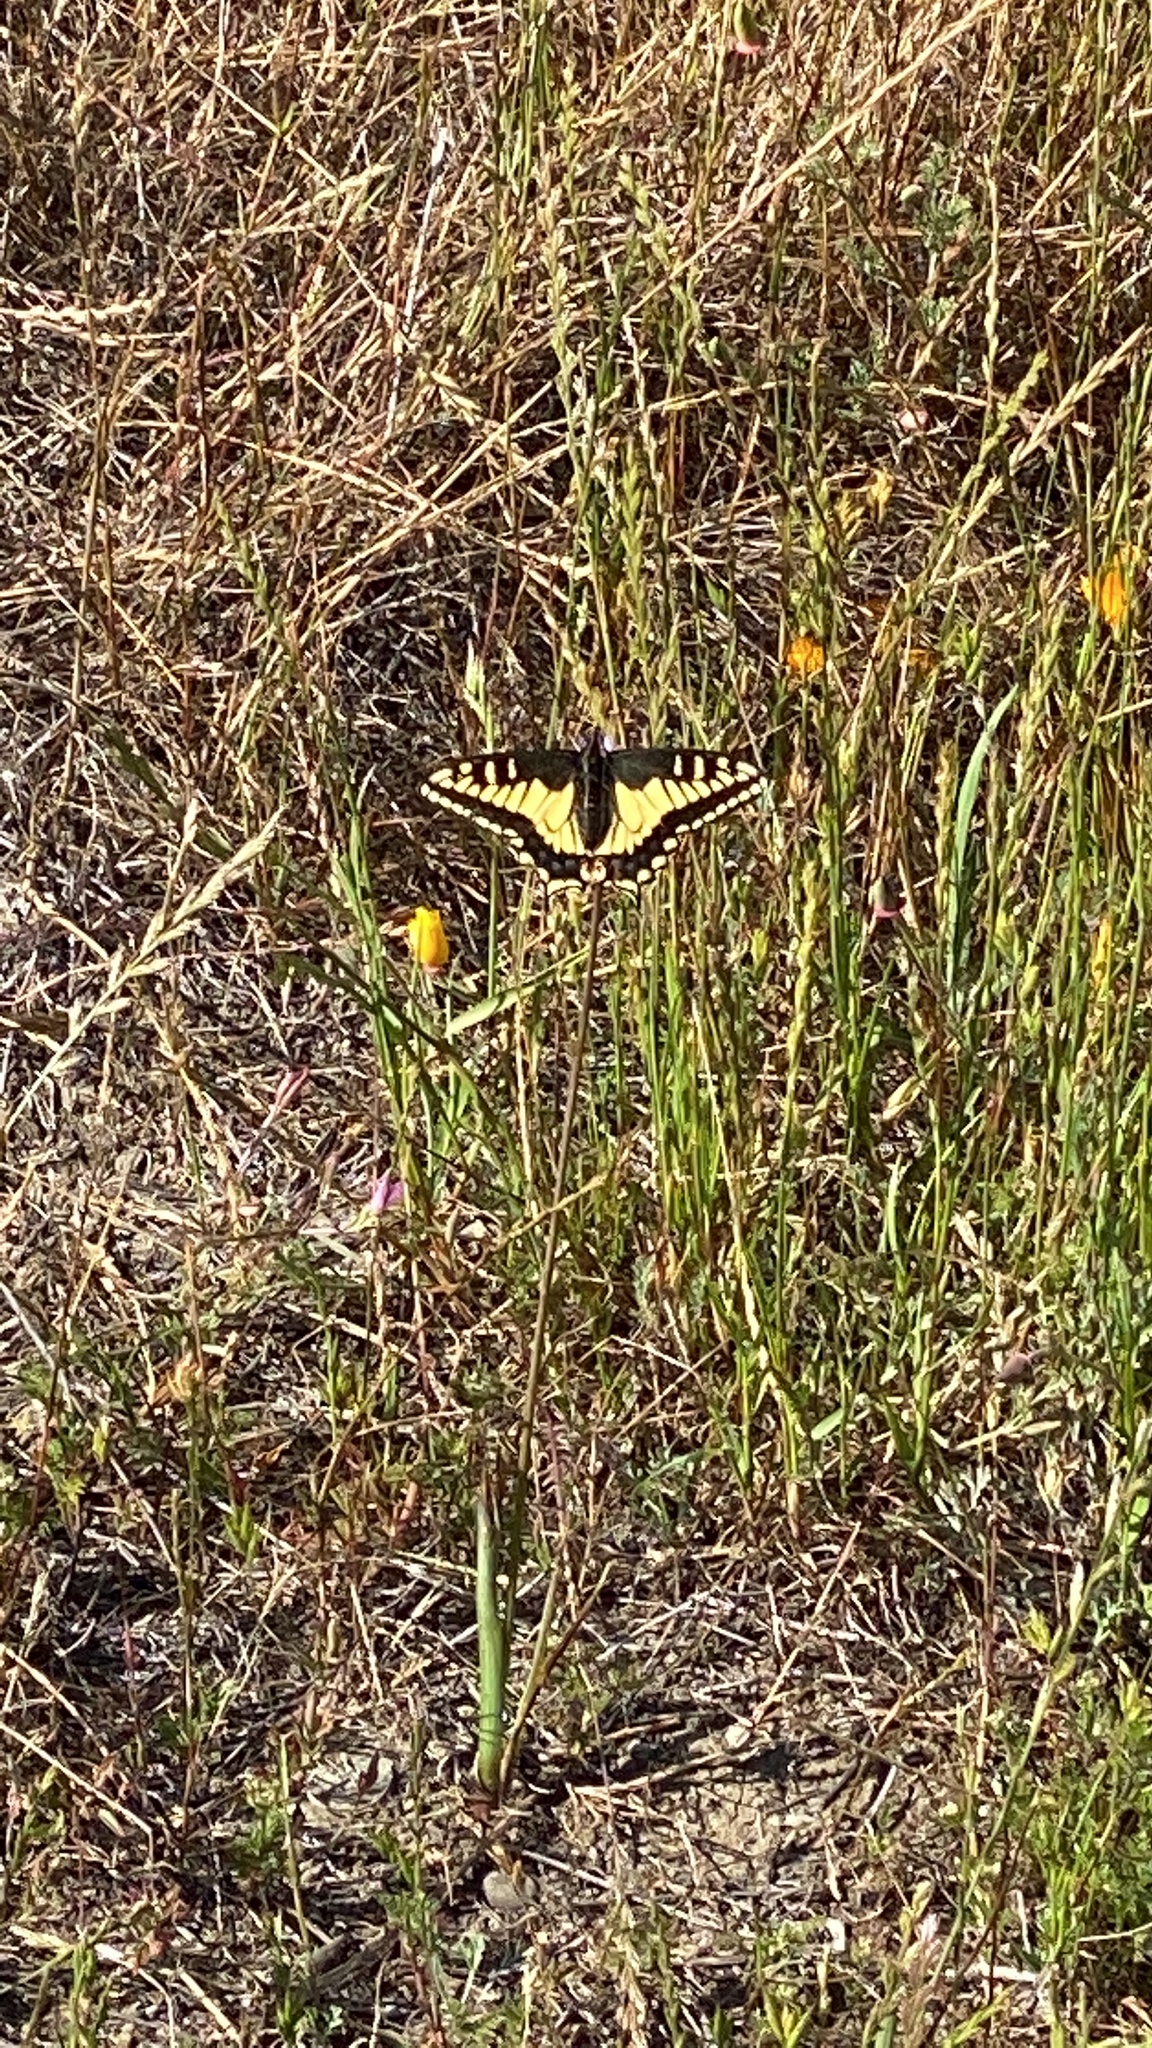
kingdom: Animalia
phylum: Arthropoda
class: Insecta
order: Lepidoptera
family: Papilionidae
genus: Papilio
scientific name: Papilio zelicaon
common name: Anise swallowtail
